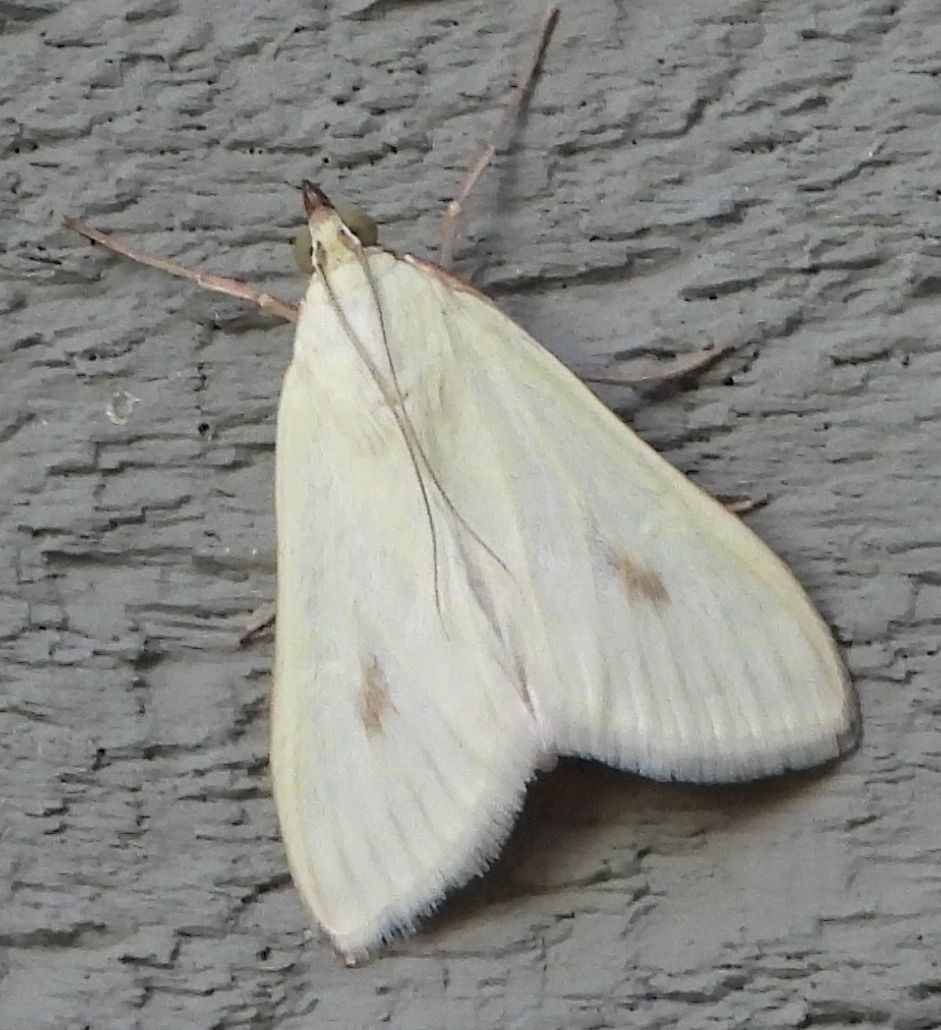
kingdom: Animalia
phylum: Arthropoda
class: Insecta
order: Lepidoptera
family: Crambidae
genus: Sitochroa
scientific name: Sitochroa palealis
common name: Greenish-yellow sitochroa moth
